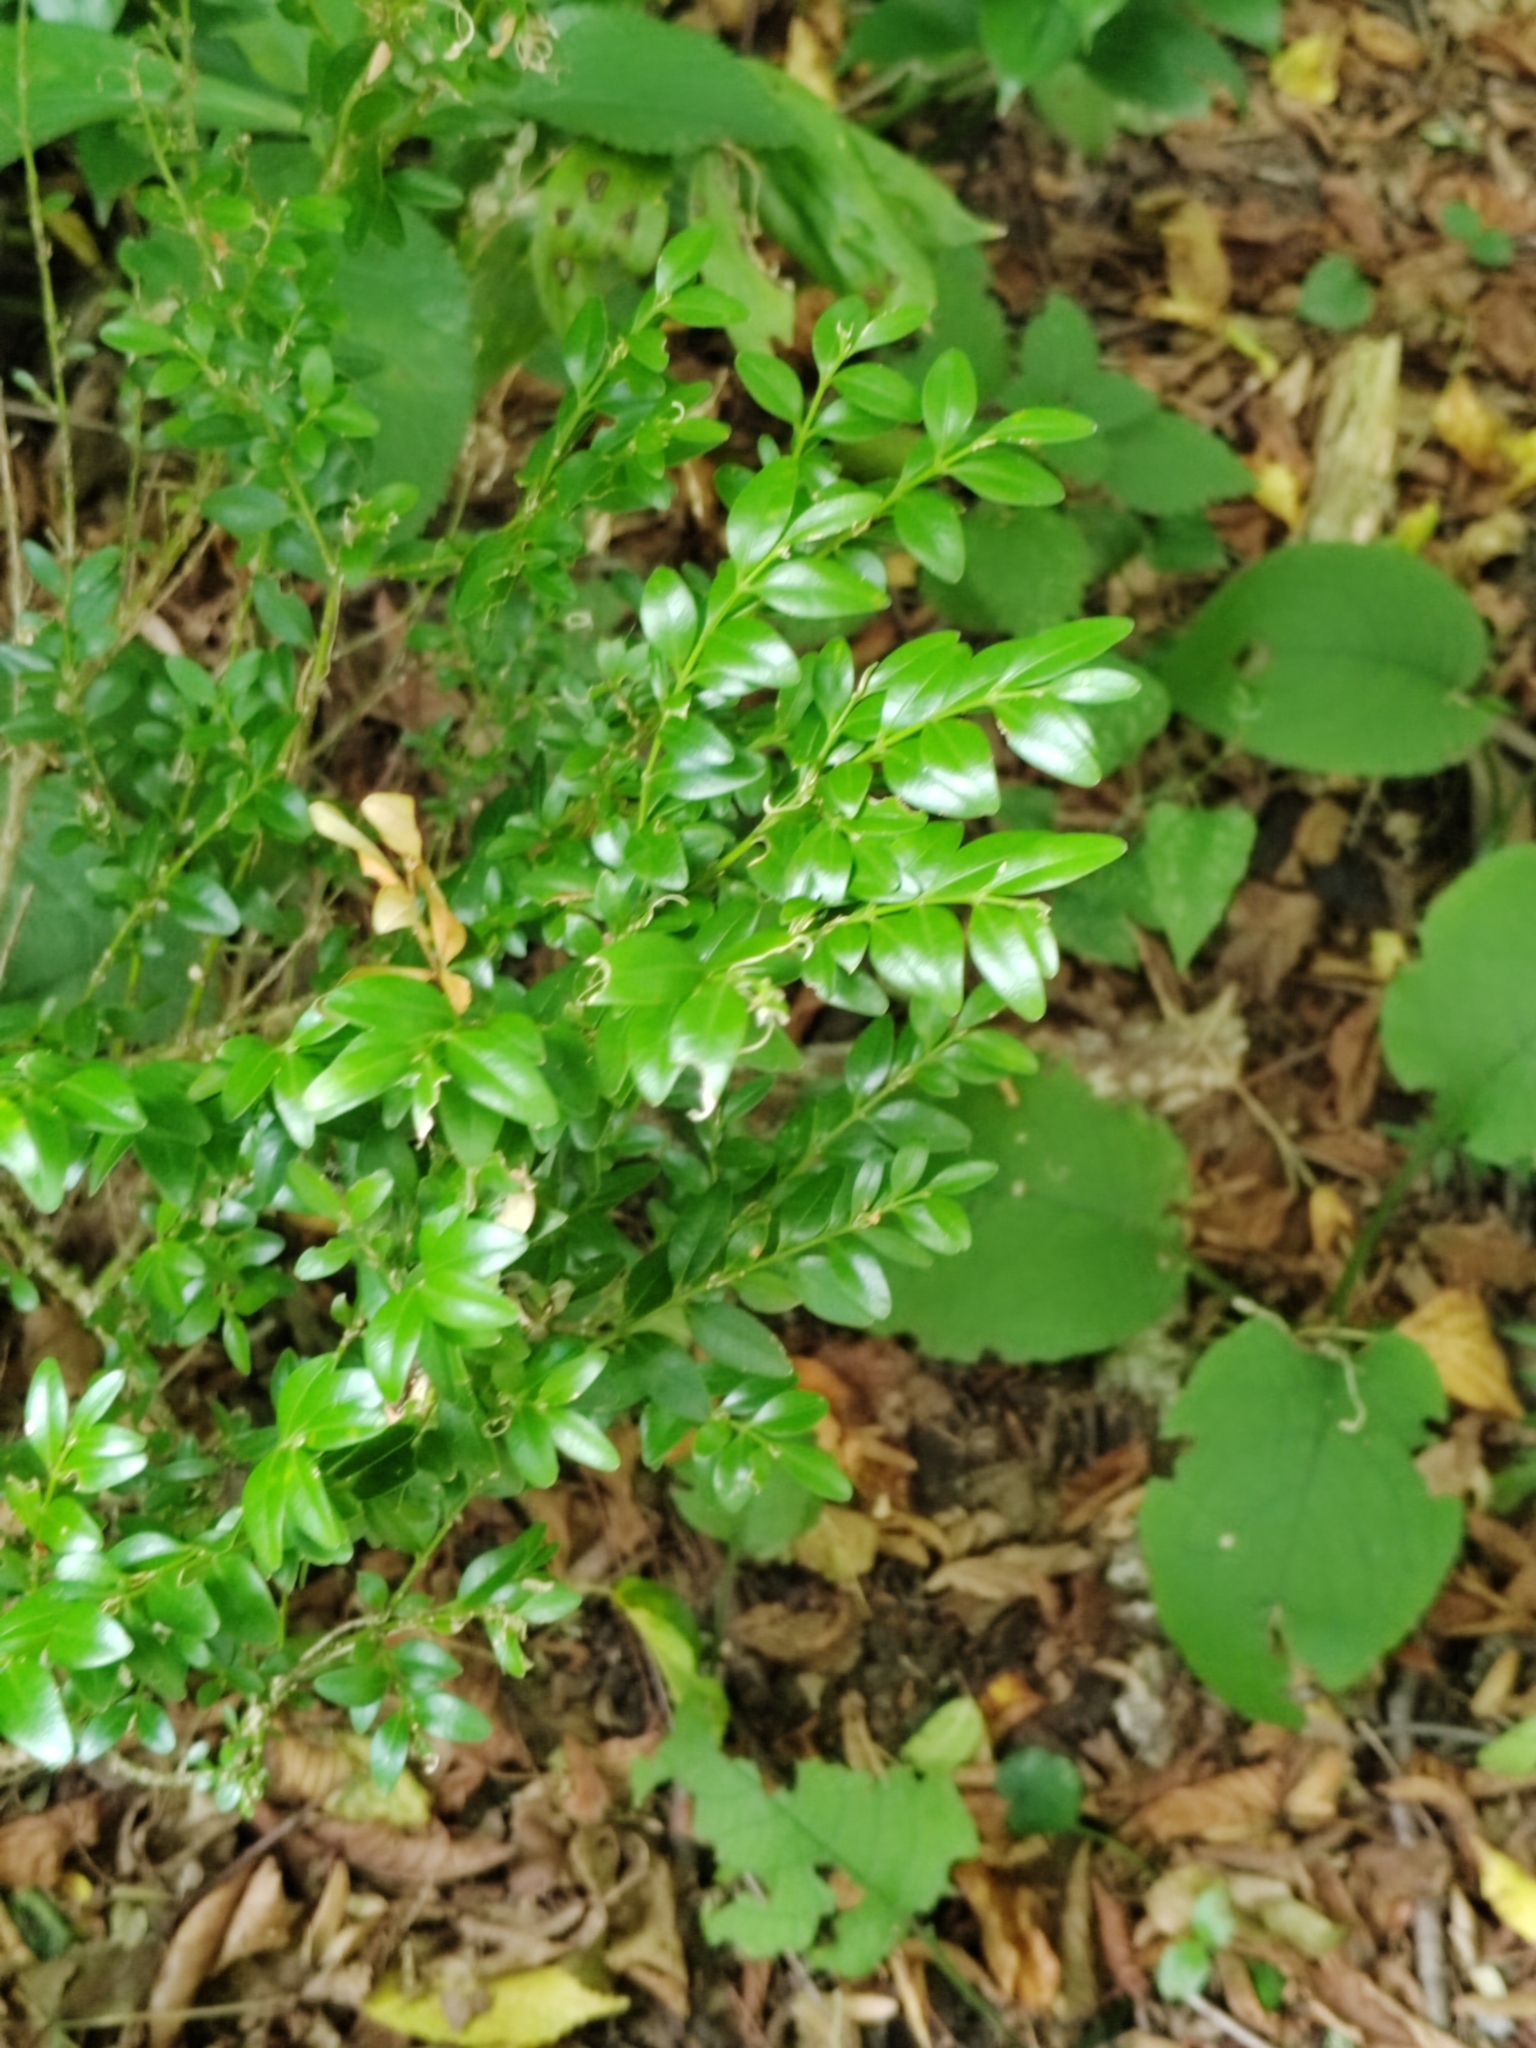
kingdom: Plantae
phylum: Tracheophyta
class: Magnoliopsida
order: Buxales
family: Buxaceae
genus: Buxus
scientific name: Buxus sempervirens
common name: Box
